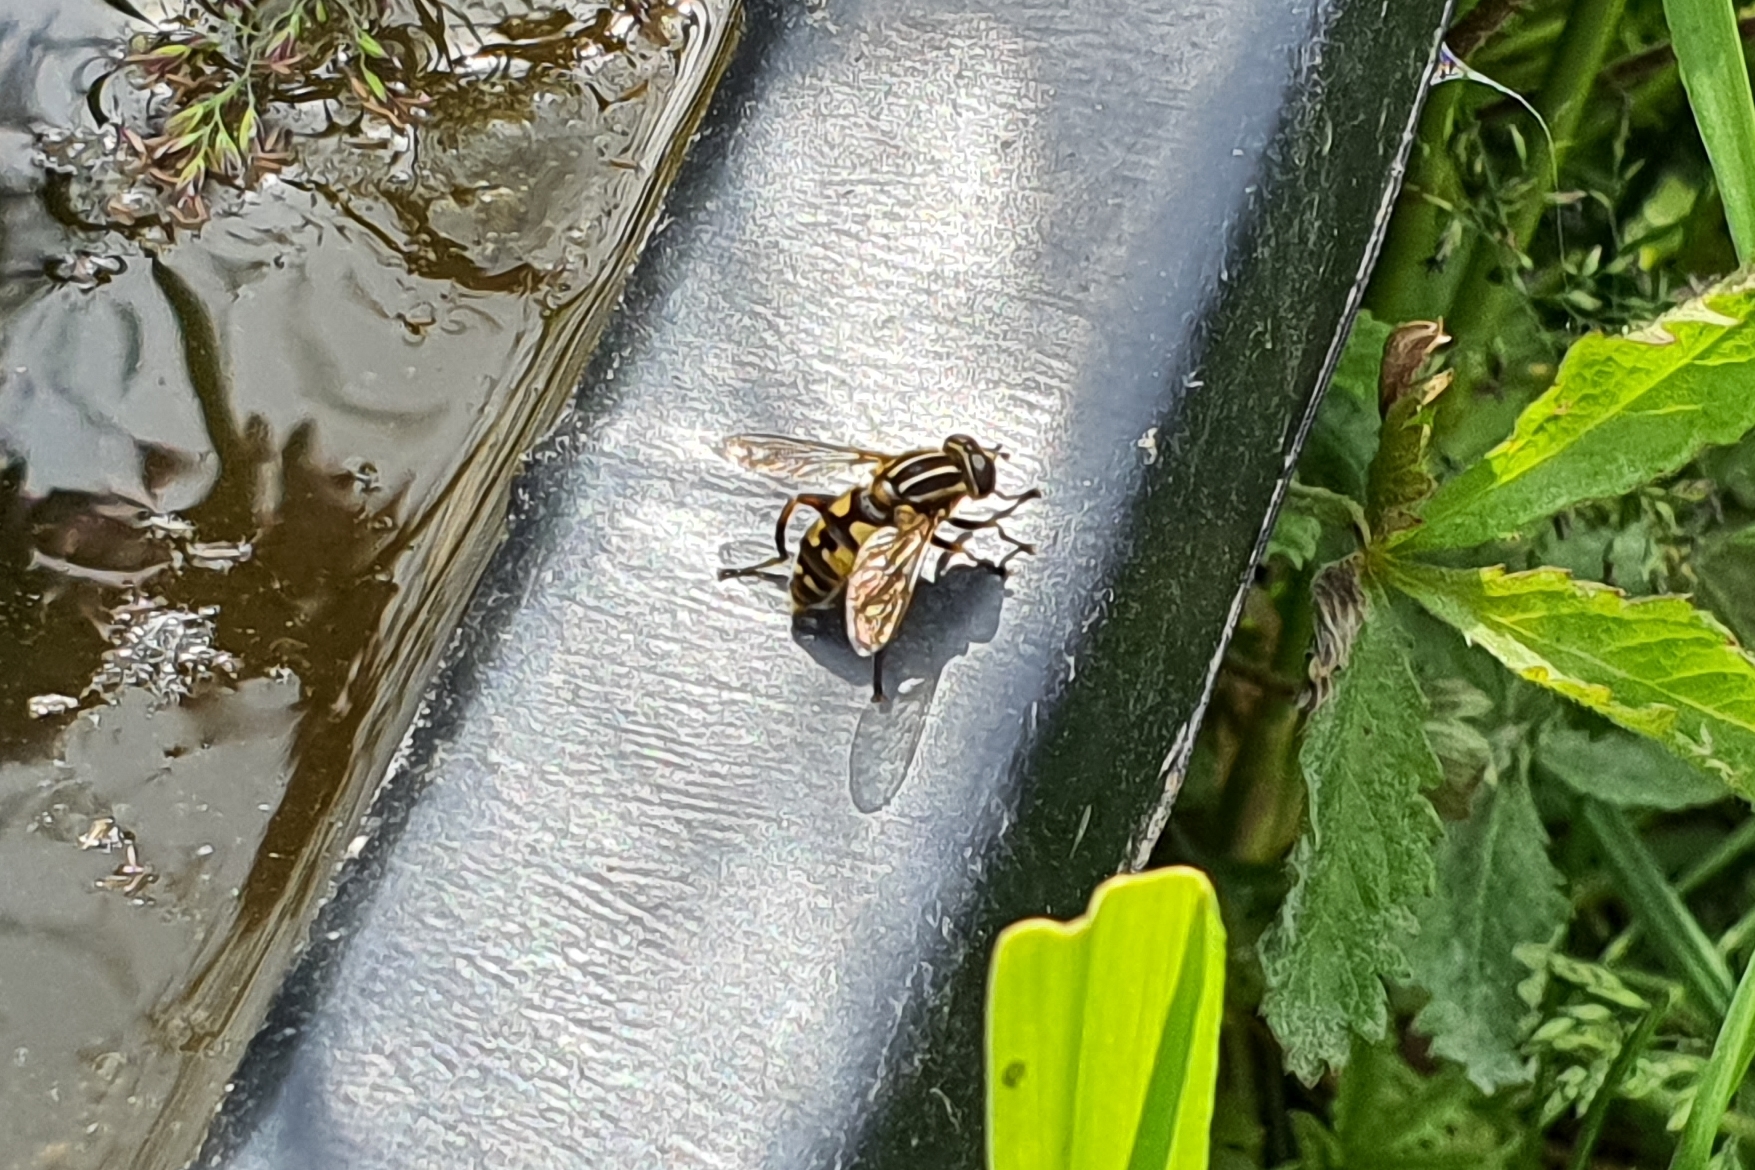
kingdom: Animalia
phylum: Arthropoda
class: Insecta
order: Diptera
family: Syrphidae
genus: Helophilus
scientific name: Helophilus pendulus
